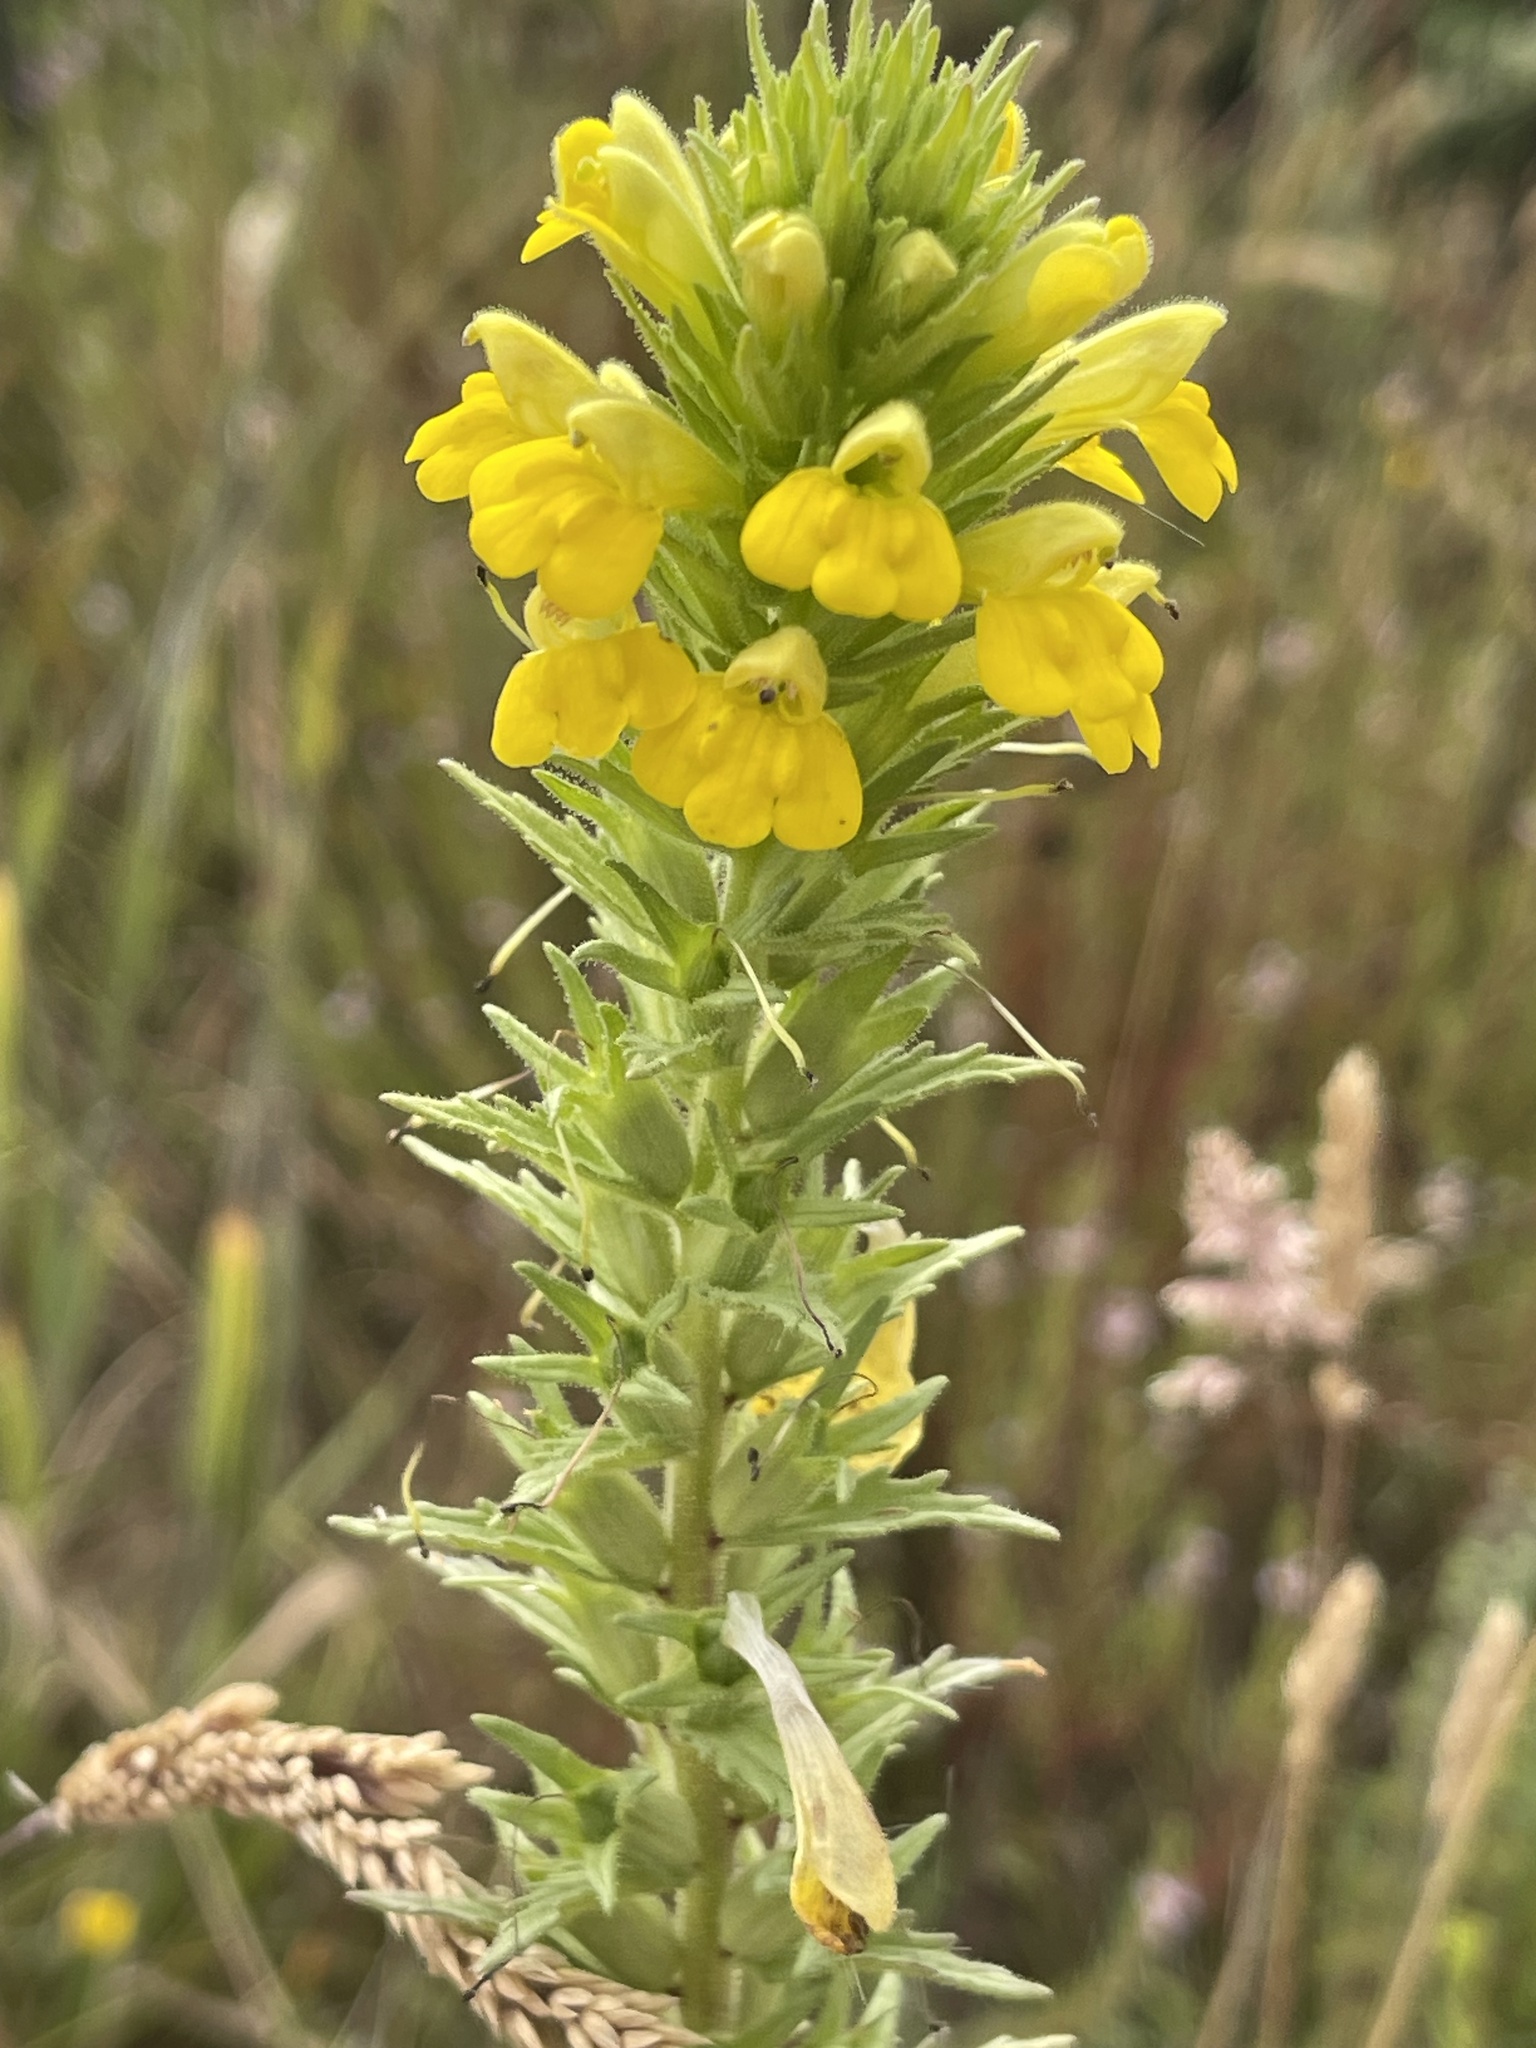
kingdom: Plantae
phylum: Tracheophyta
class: Magnoliopsida
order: Lamiales
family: Orobanchaceae
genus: Bellardia
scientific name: Bellardia viscosa
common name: Sticky parentucellia
